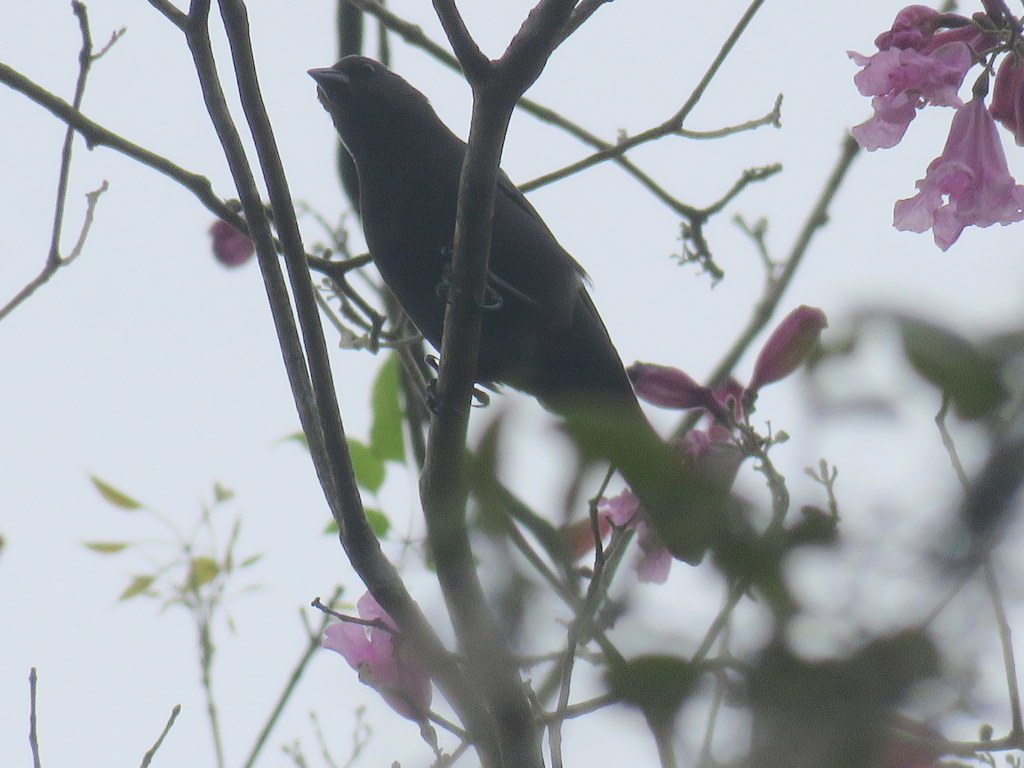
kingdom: Animalia
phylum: Chordata
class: Aves
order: Passeriformes
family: Thraupidae
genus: Tachyphonus
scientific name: Tachyphonus rufus
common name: White-lined tanager
